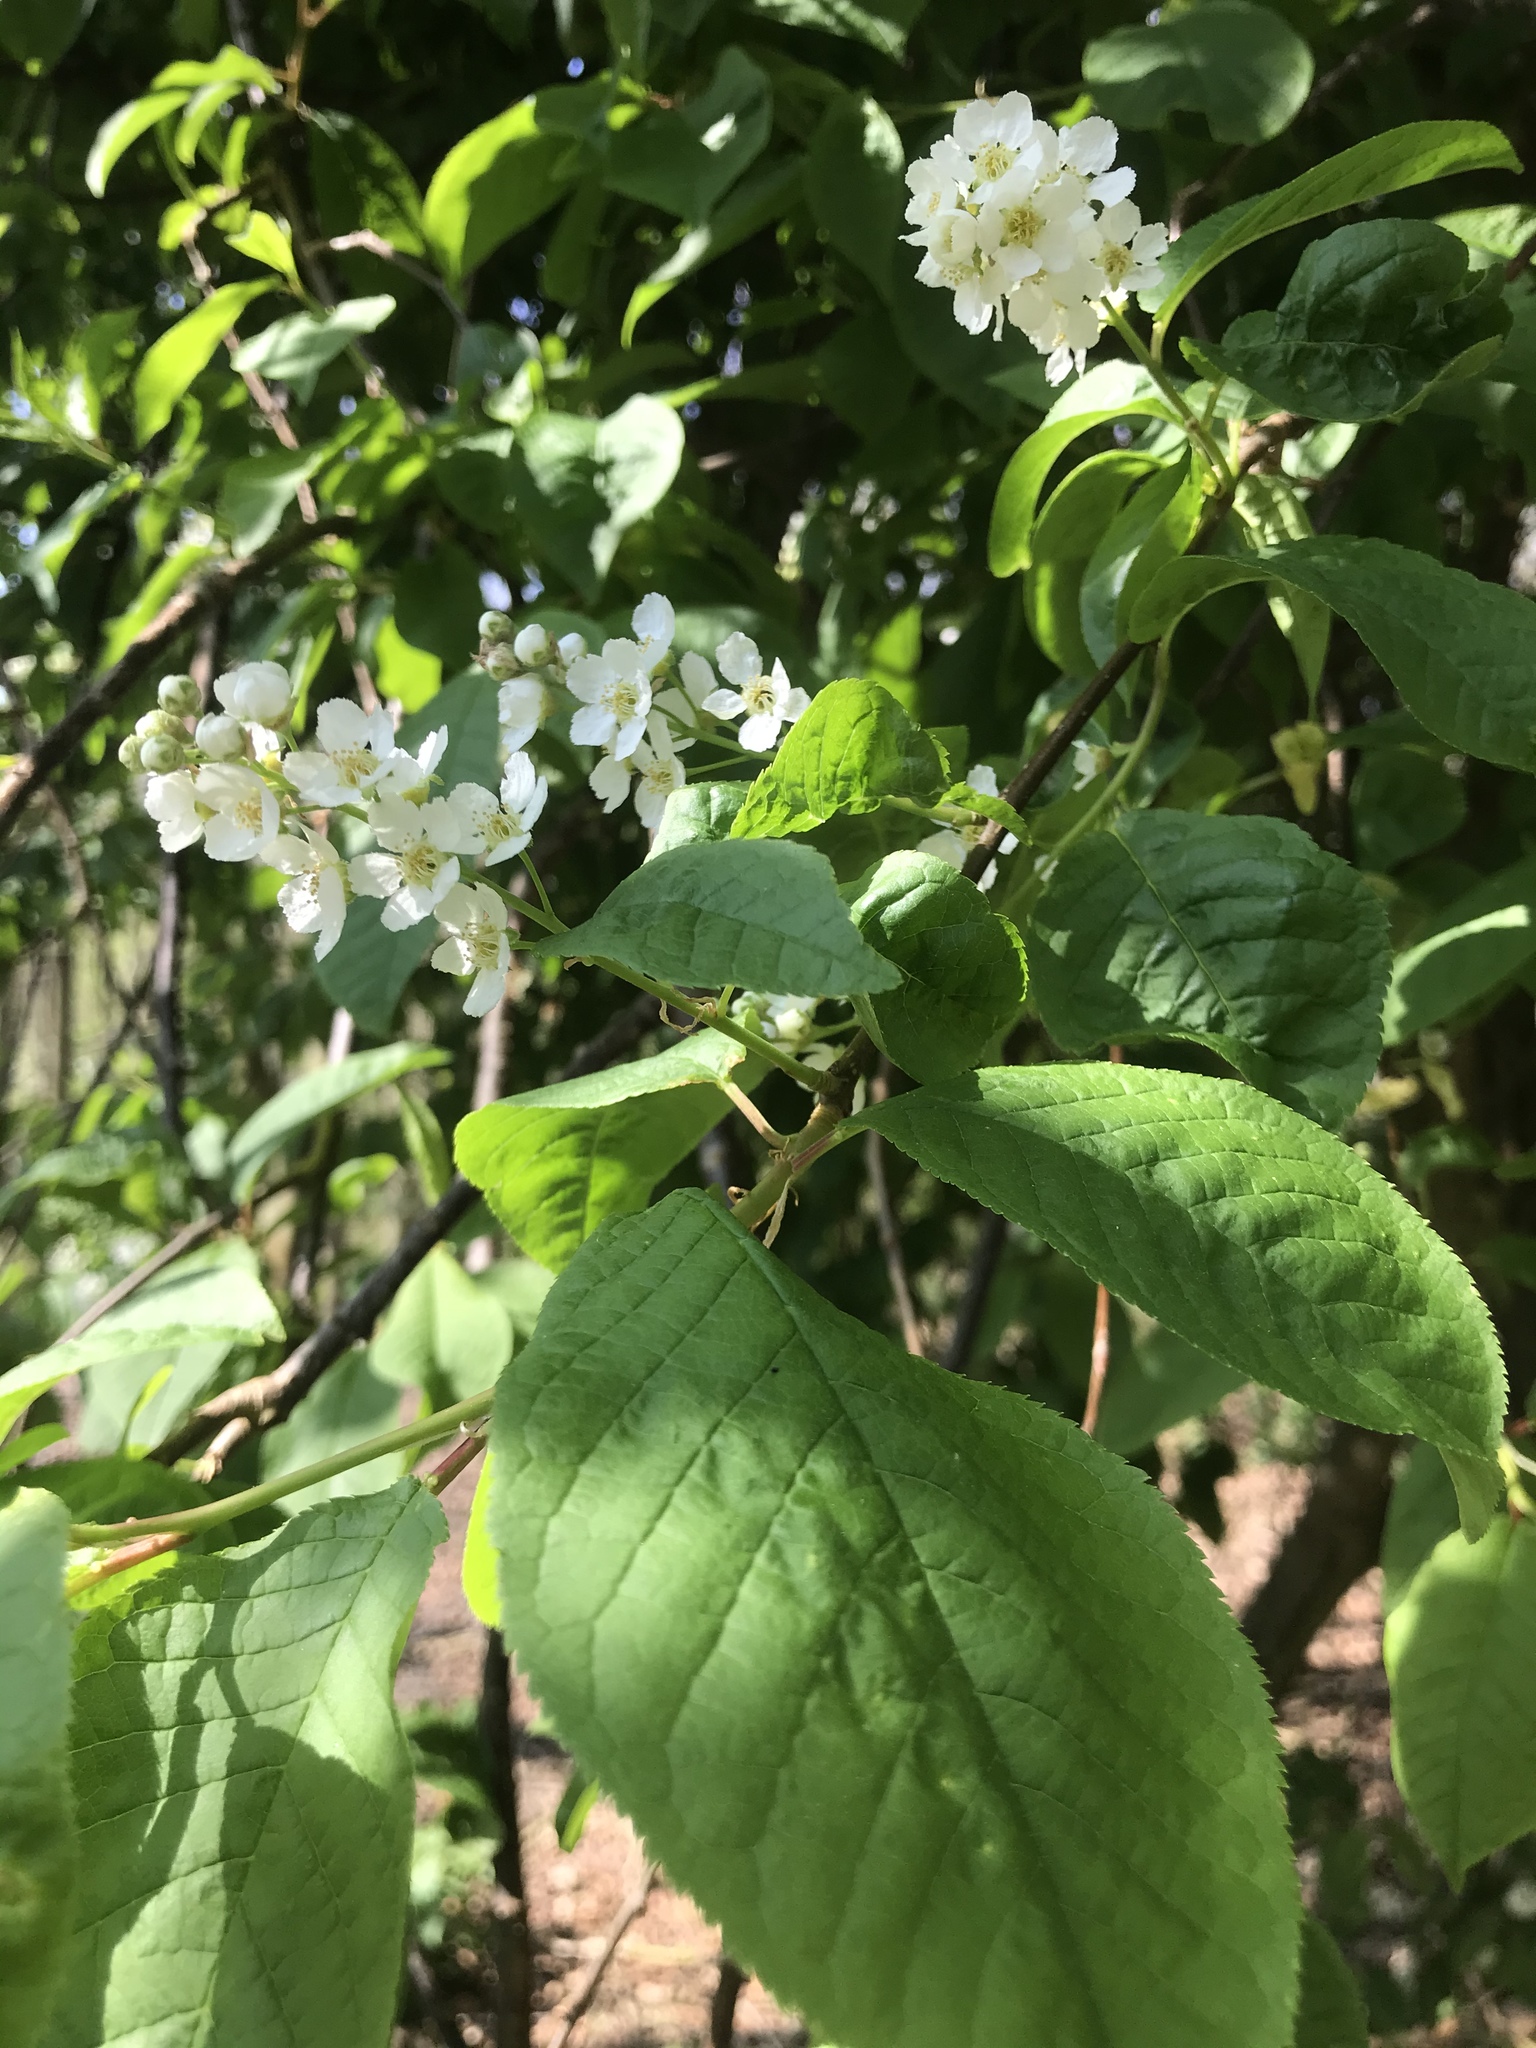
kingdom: Plantae
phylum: Tracheophyta
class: Magnoliopsida
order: Rosales
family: Rosaceae
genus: Prunus
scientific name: Prunus padus
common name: Bird cherry
